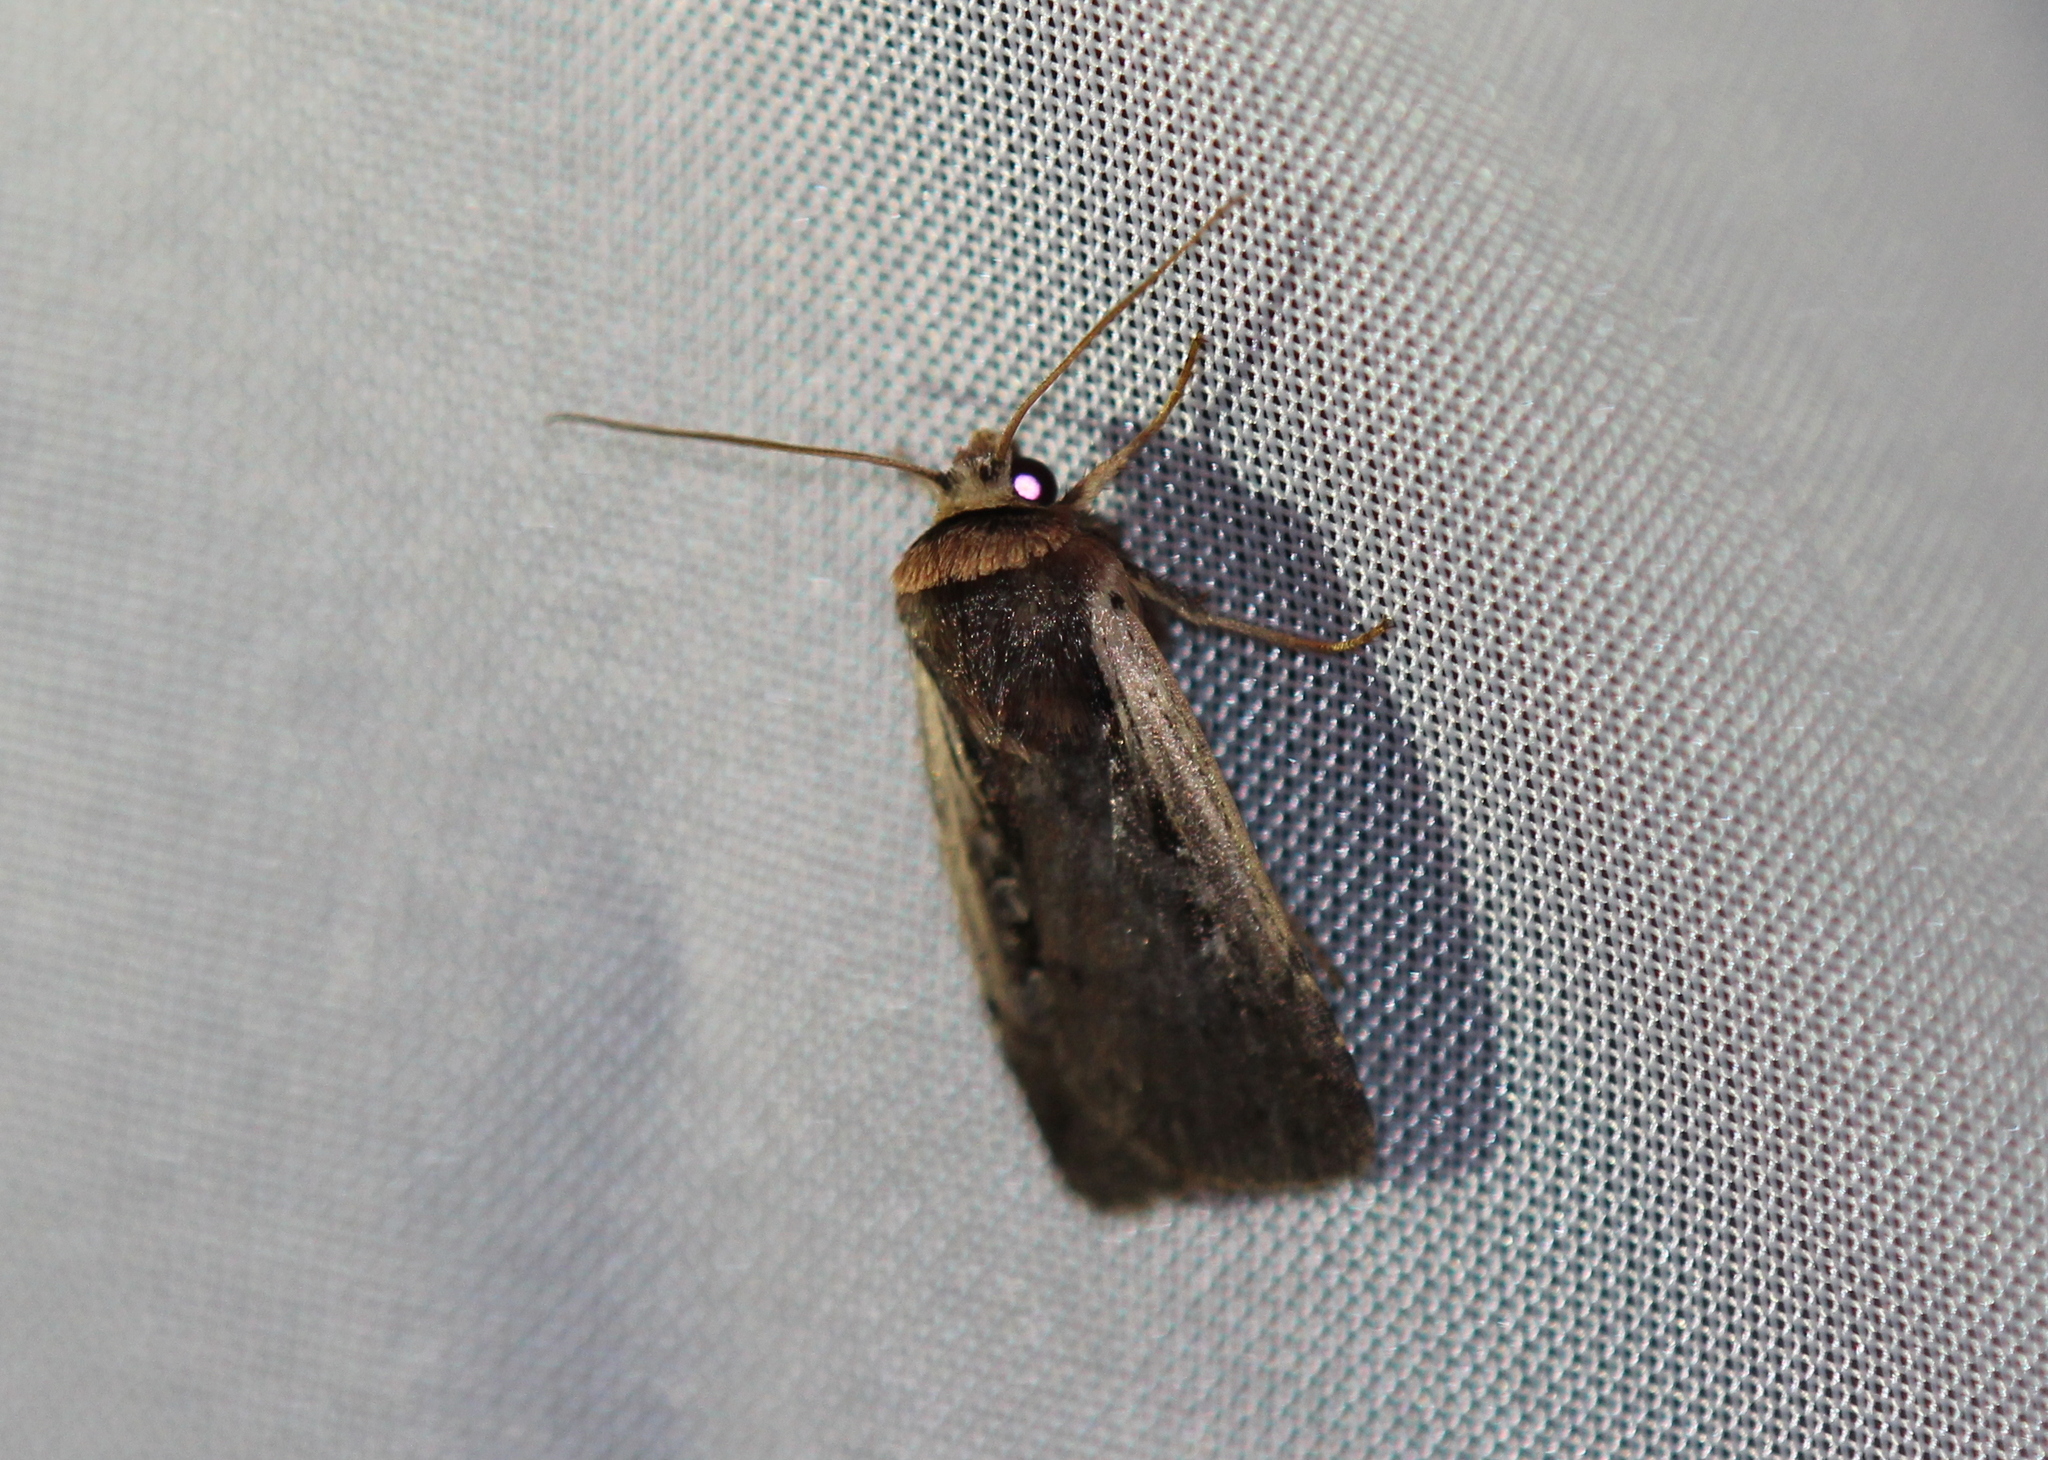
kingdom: Animalia
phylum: Arthropoda
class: Insecta
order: Lepidoptera
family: Noctuidae
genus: Ochropleura
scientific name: Ochropleura implecta
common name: Flame-shouldered dart
